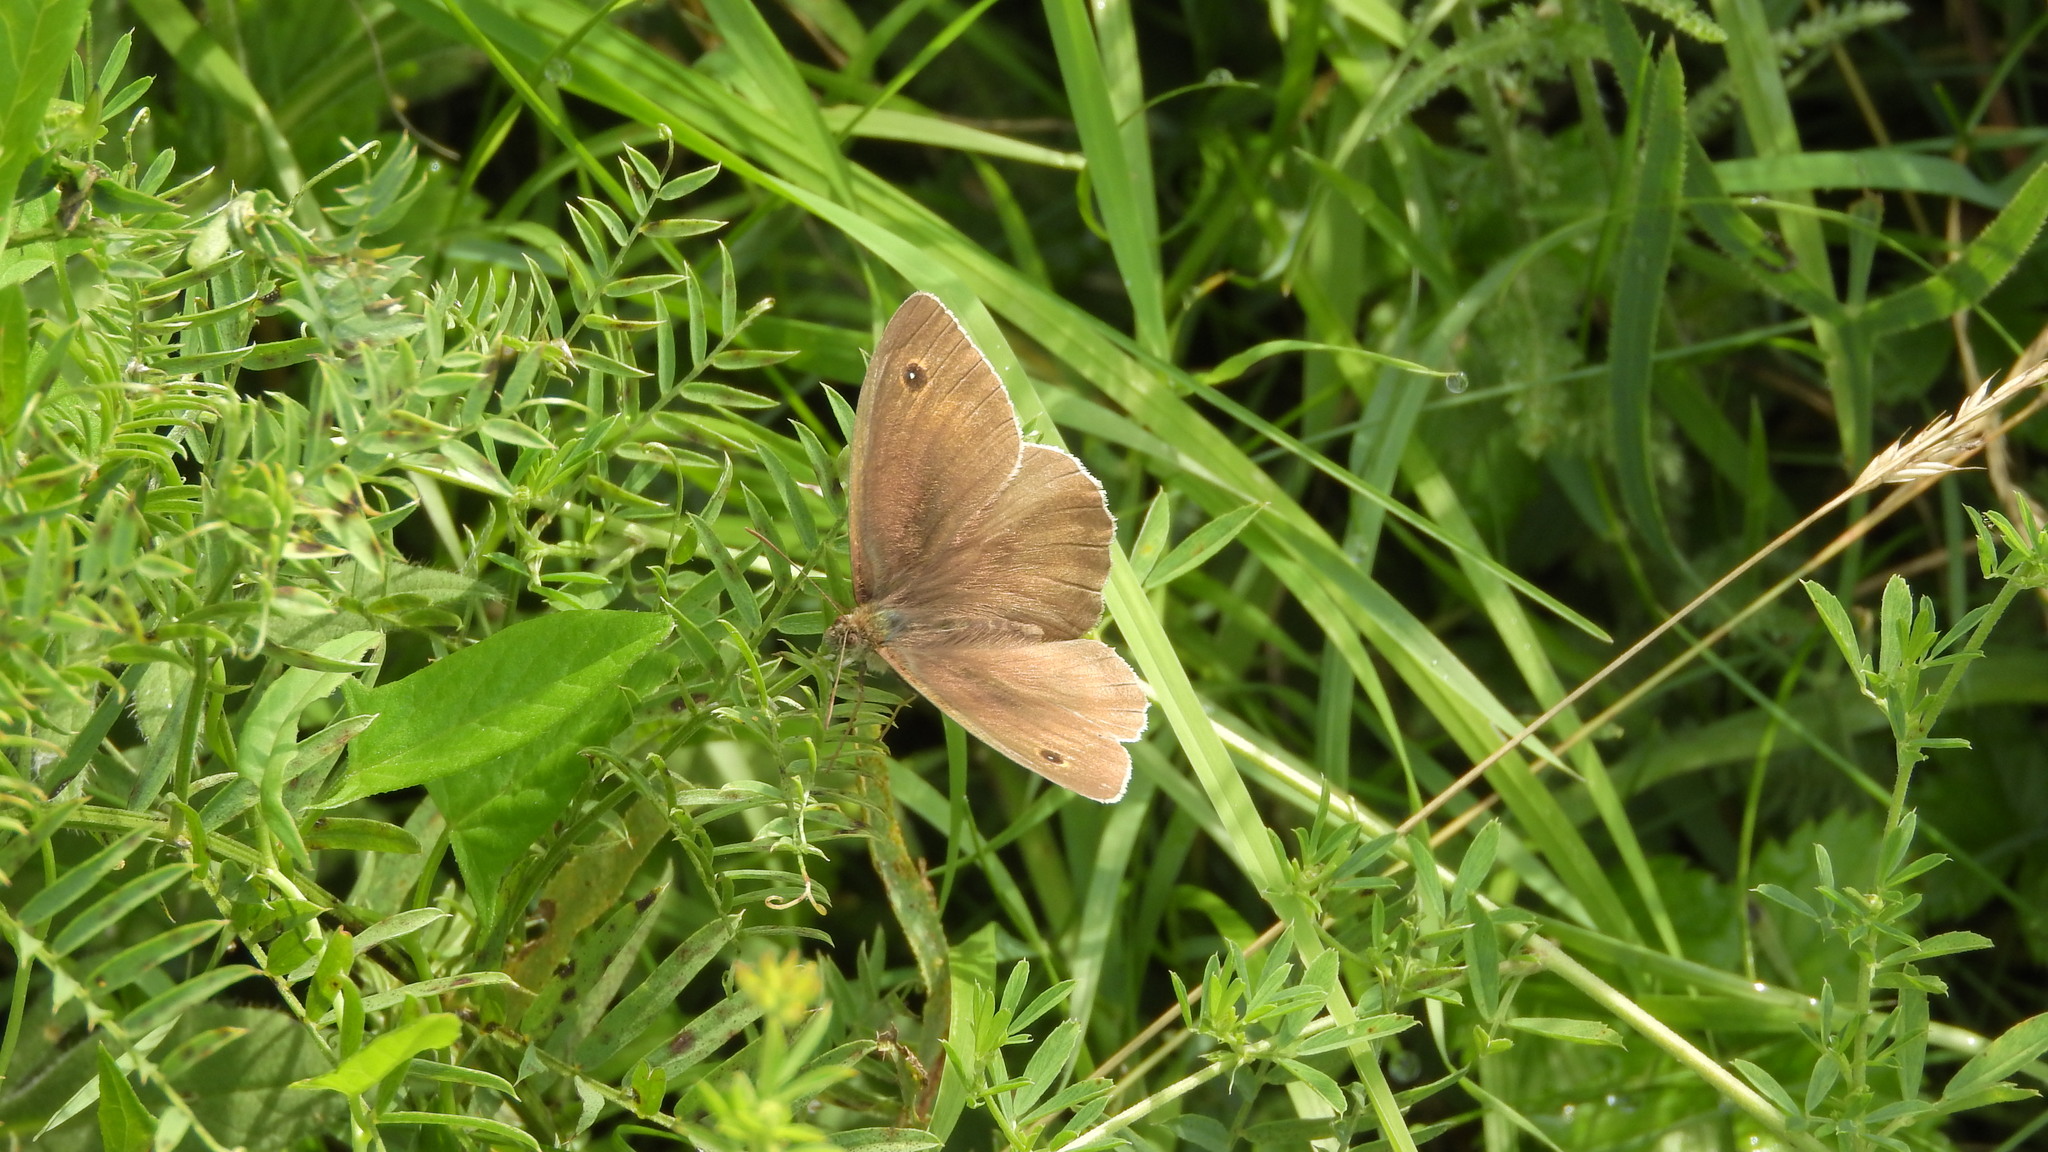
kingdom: Animalia
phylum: Arthropoda
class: Insecta
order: Lepidoptera
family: Nymphalidae
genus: Maniola
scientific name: Maniola jurtina
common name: Meadow brown
